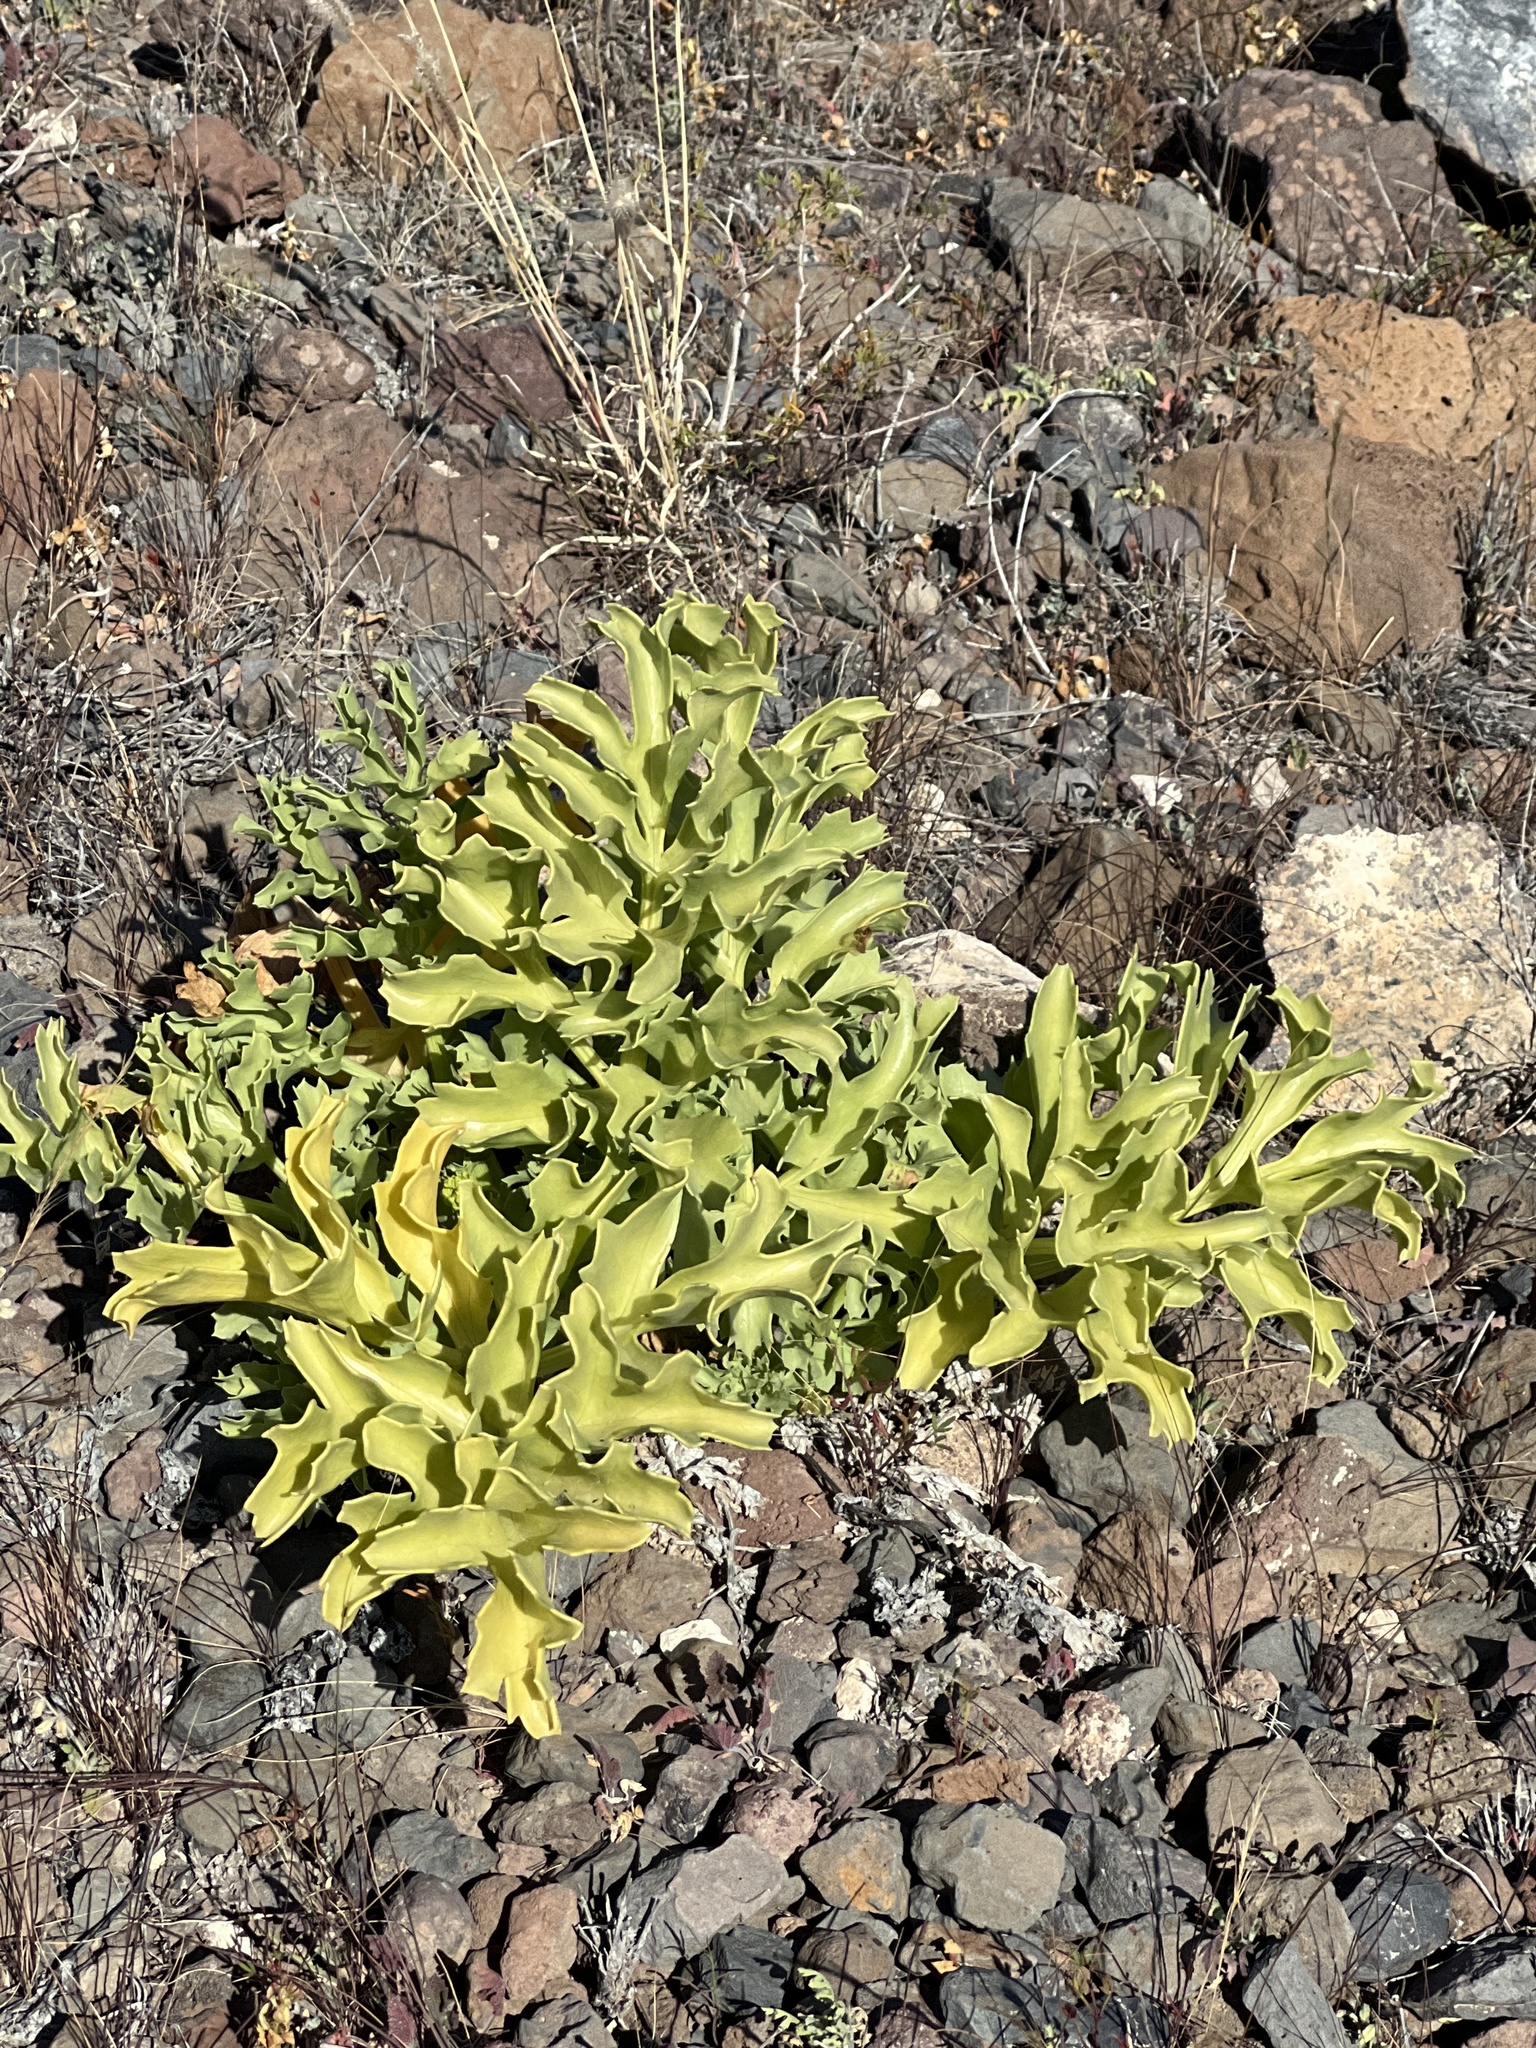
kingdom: Plantae
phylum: Tracheophyta
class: Magnoliopsida
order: Apiales
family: Apiaceae
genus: Astydamia
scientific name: Astydamia latifolia
